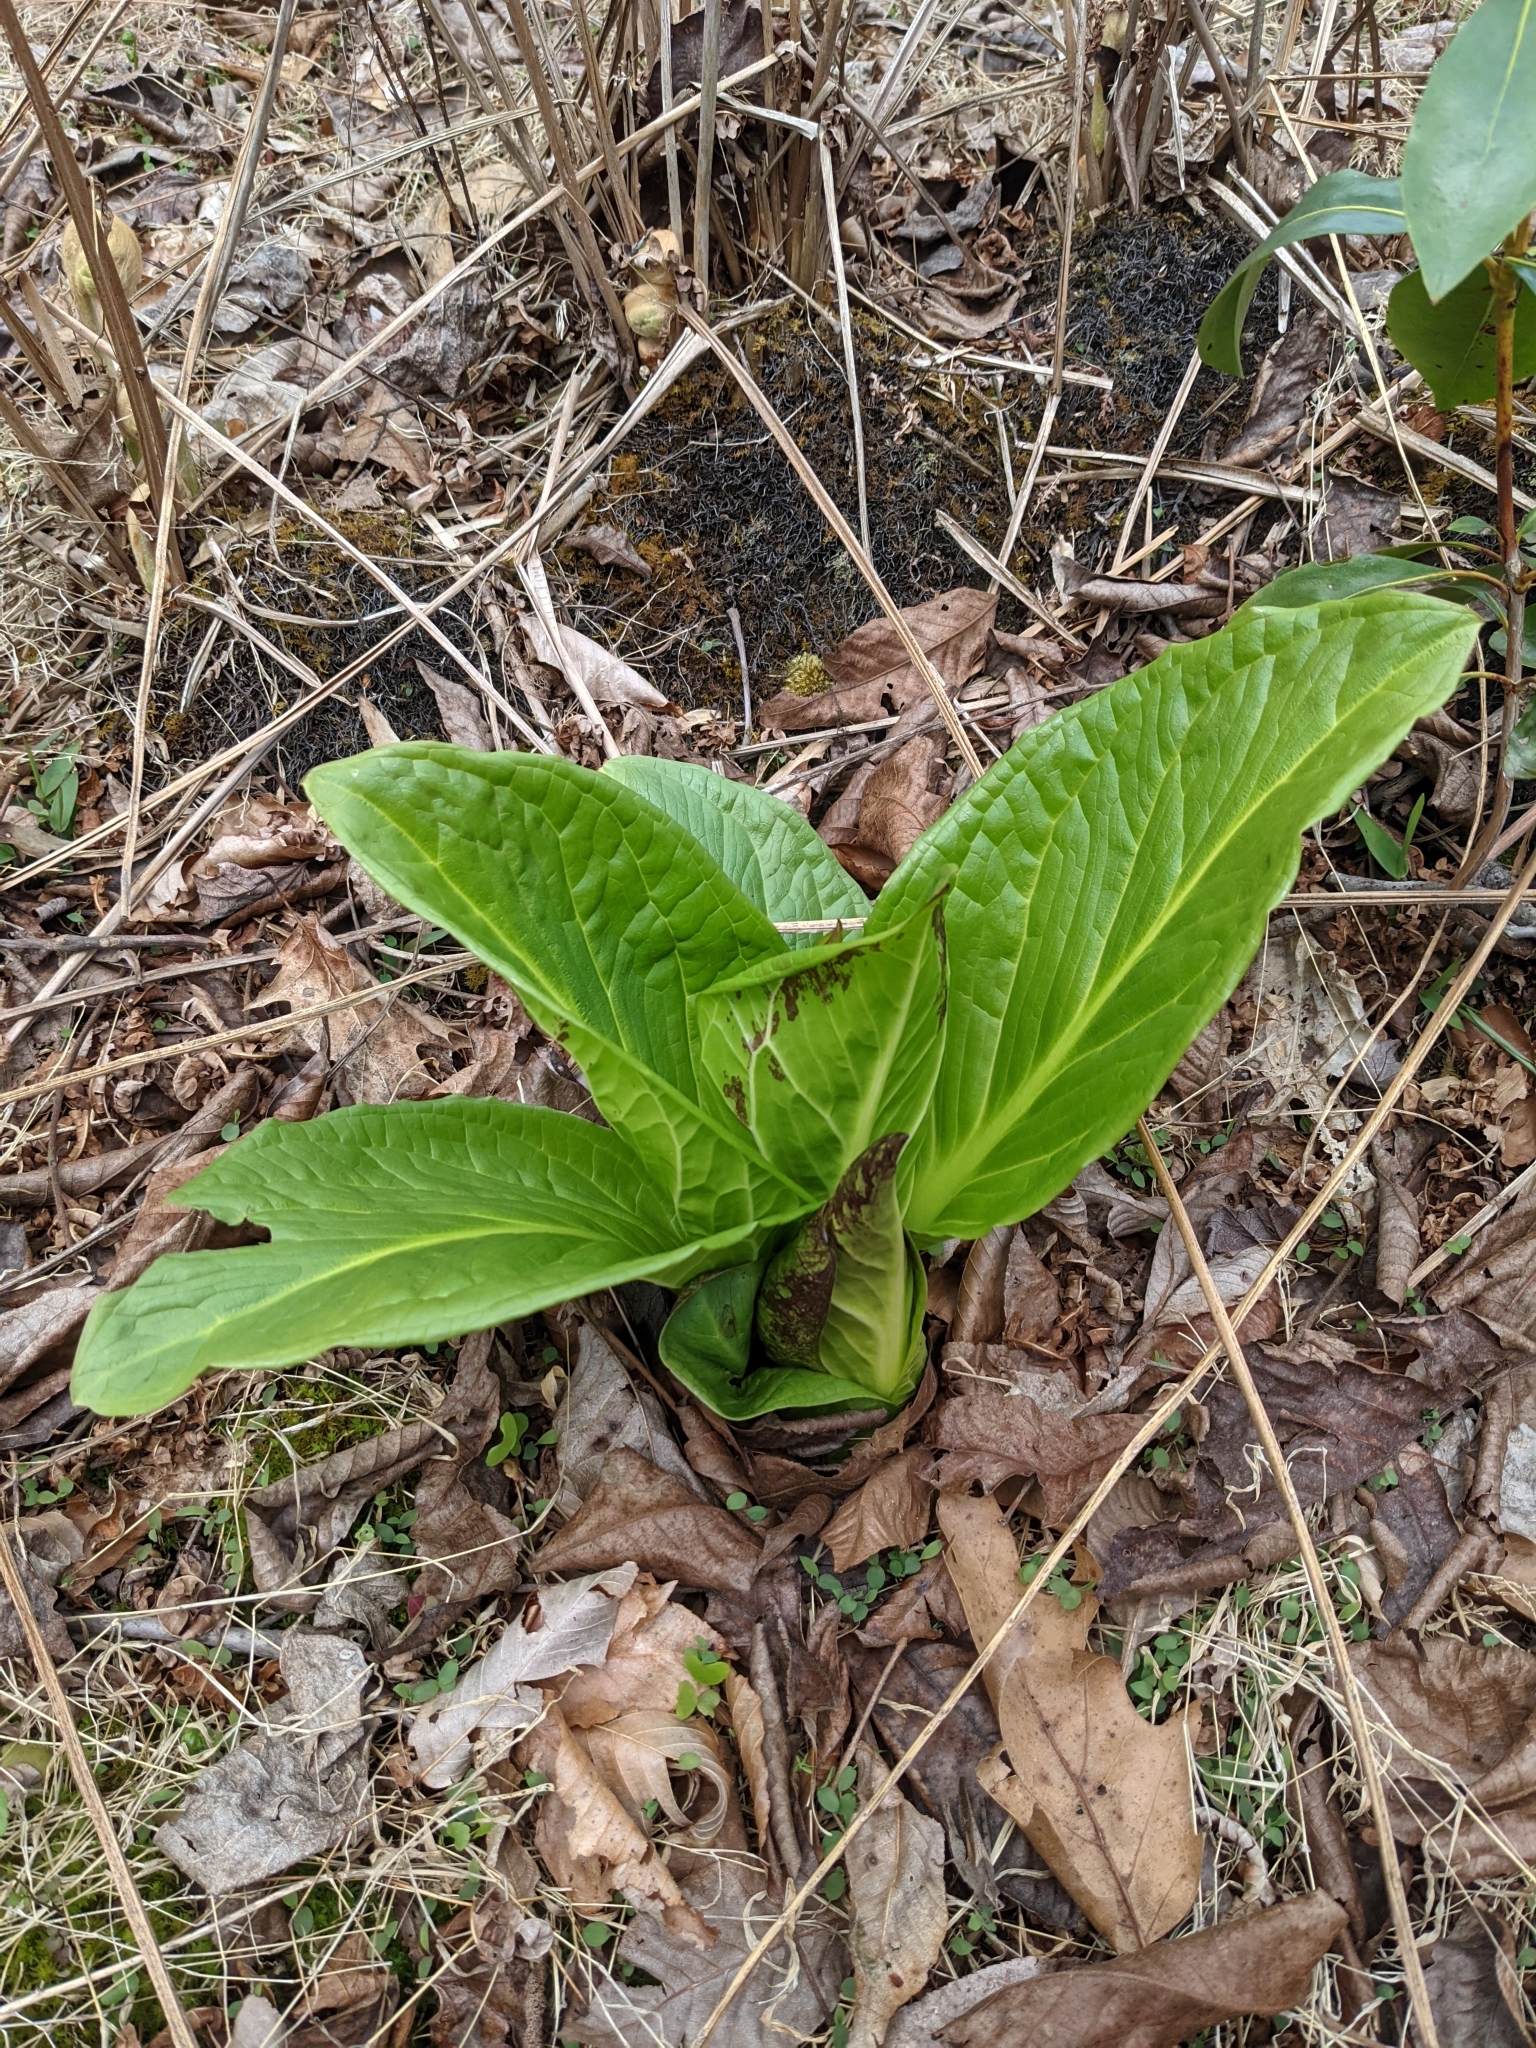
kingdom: Plantae
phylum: Tracheophyta
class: Liliopsida
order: Alismatales
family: Araceae
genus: Symplocarpus
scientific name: Symplocarpus foetidus
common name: Eastern skunk cabbage
